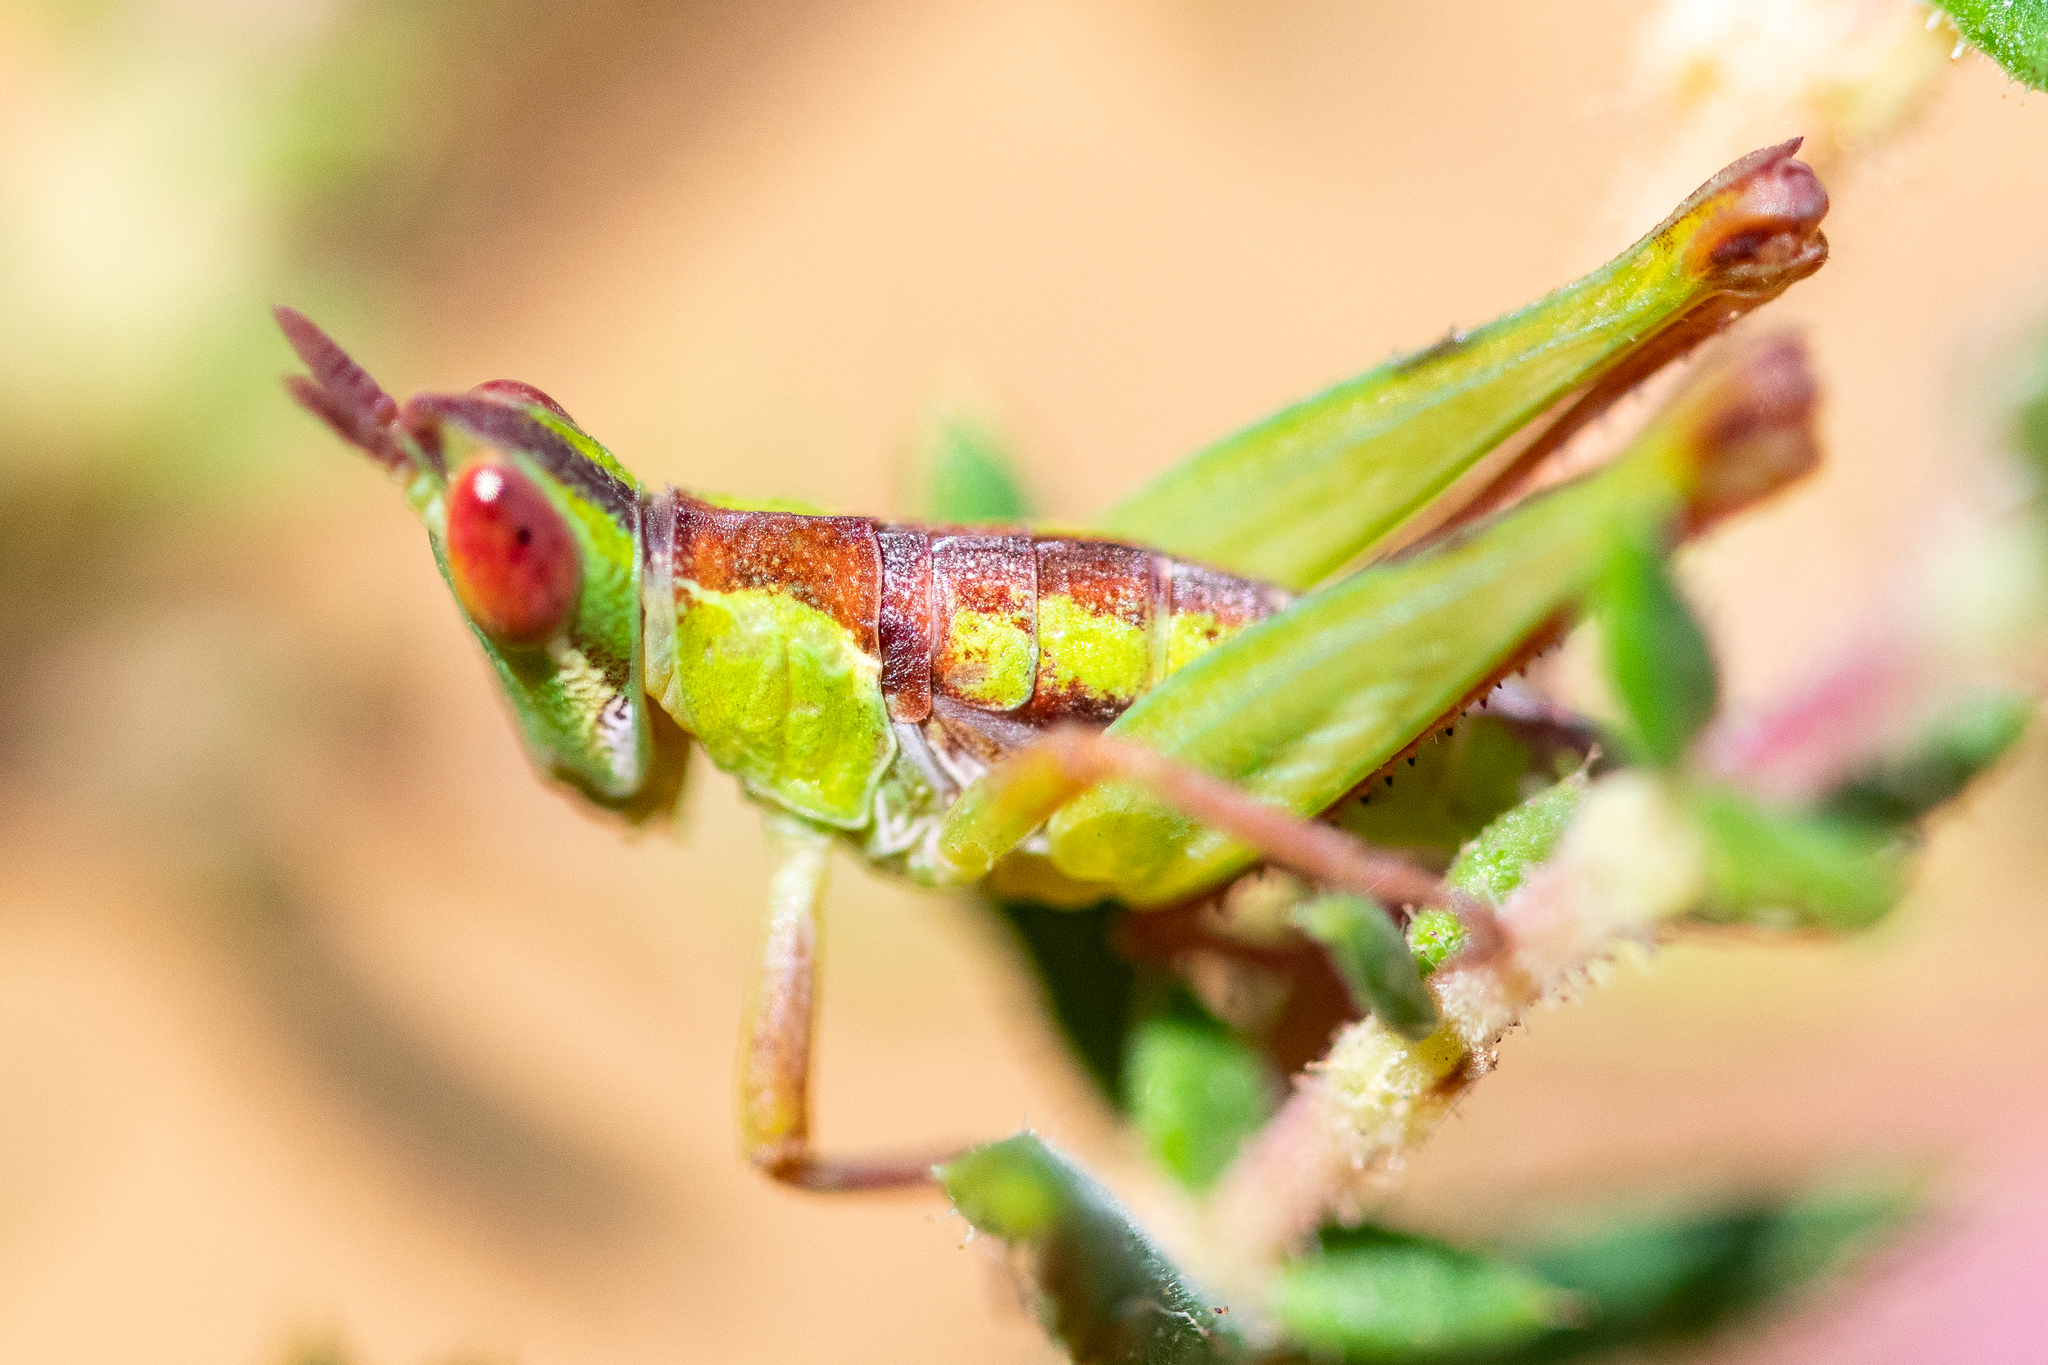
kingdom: Animalia
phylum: Arthropoda
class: Insecta
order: Orthoptera
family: Thericleidae
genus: Thericlesiella
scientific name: Thericlesiella meridionalis
